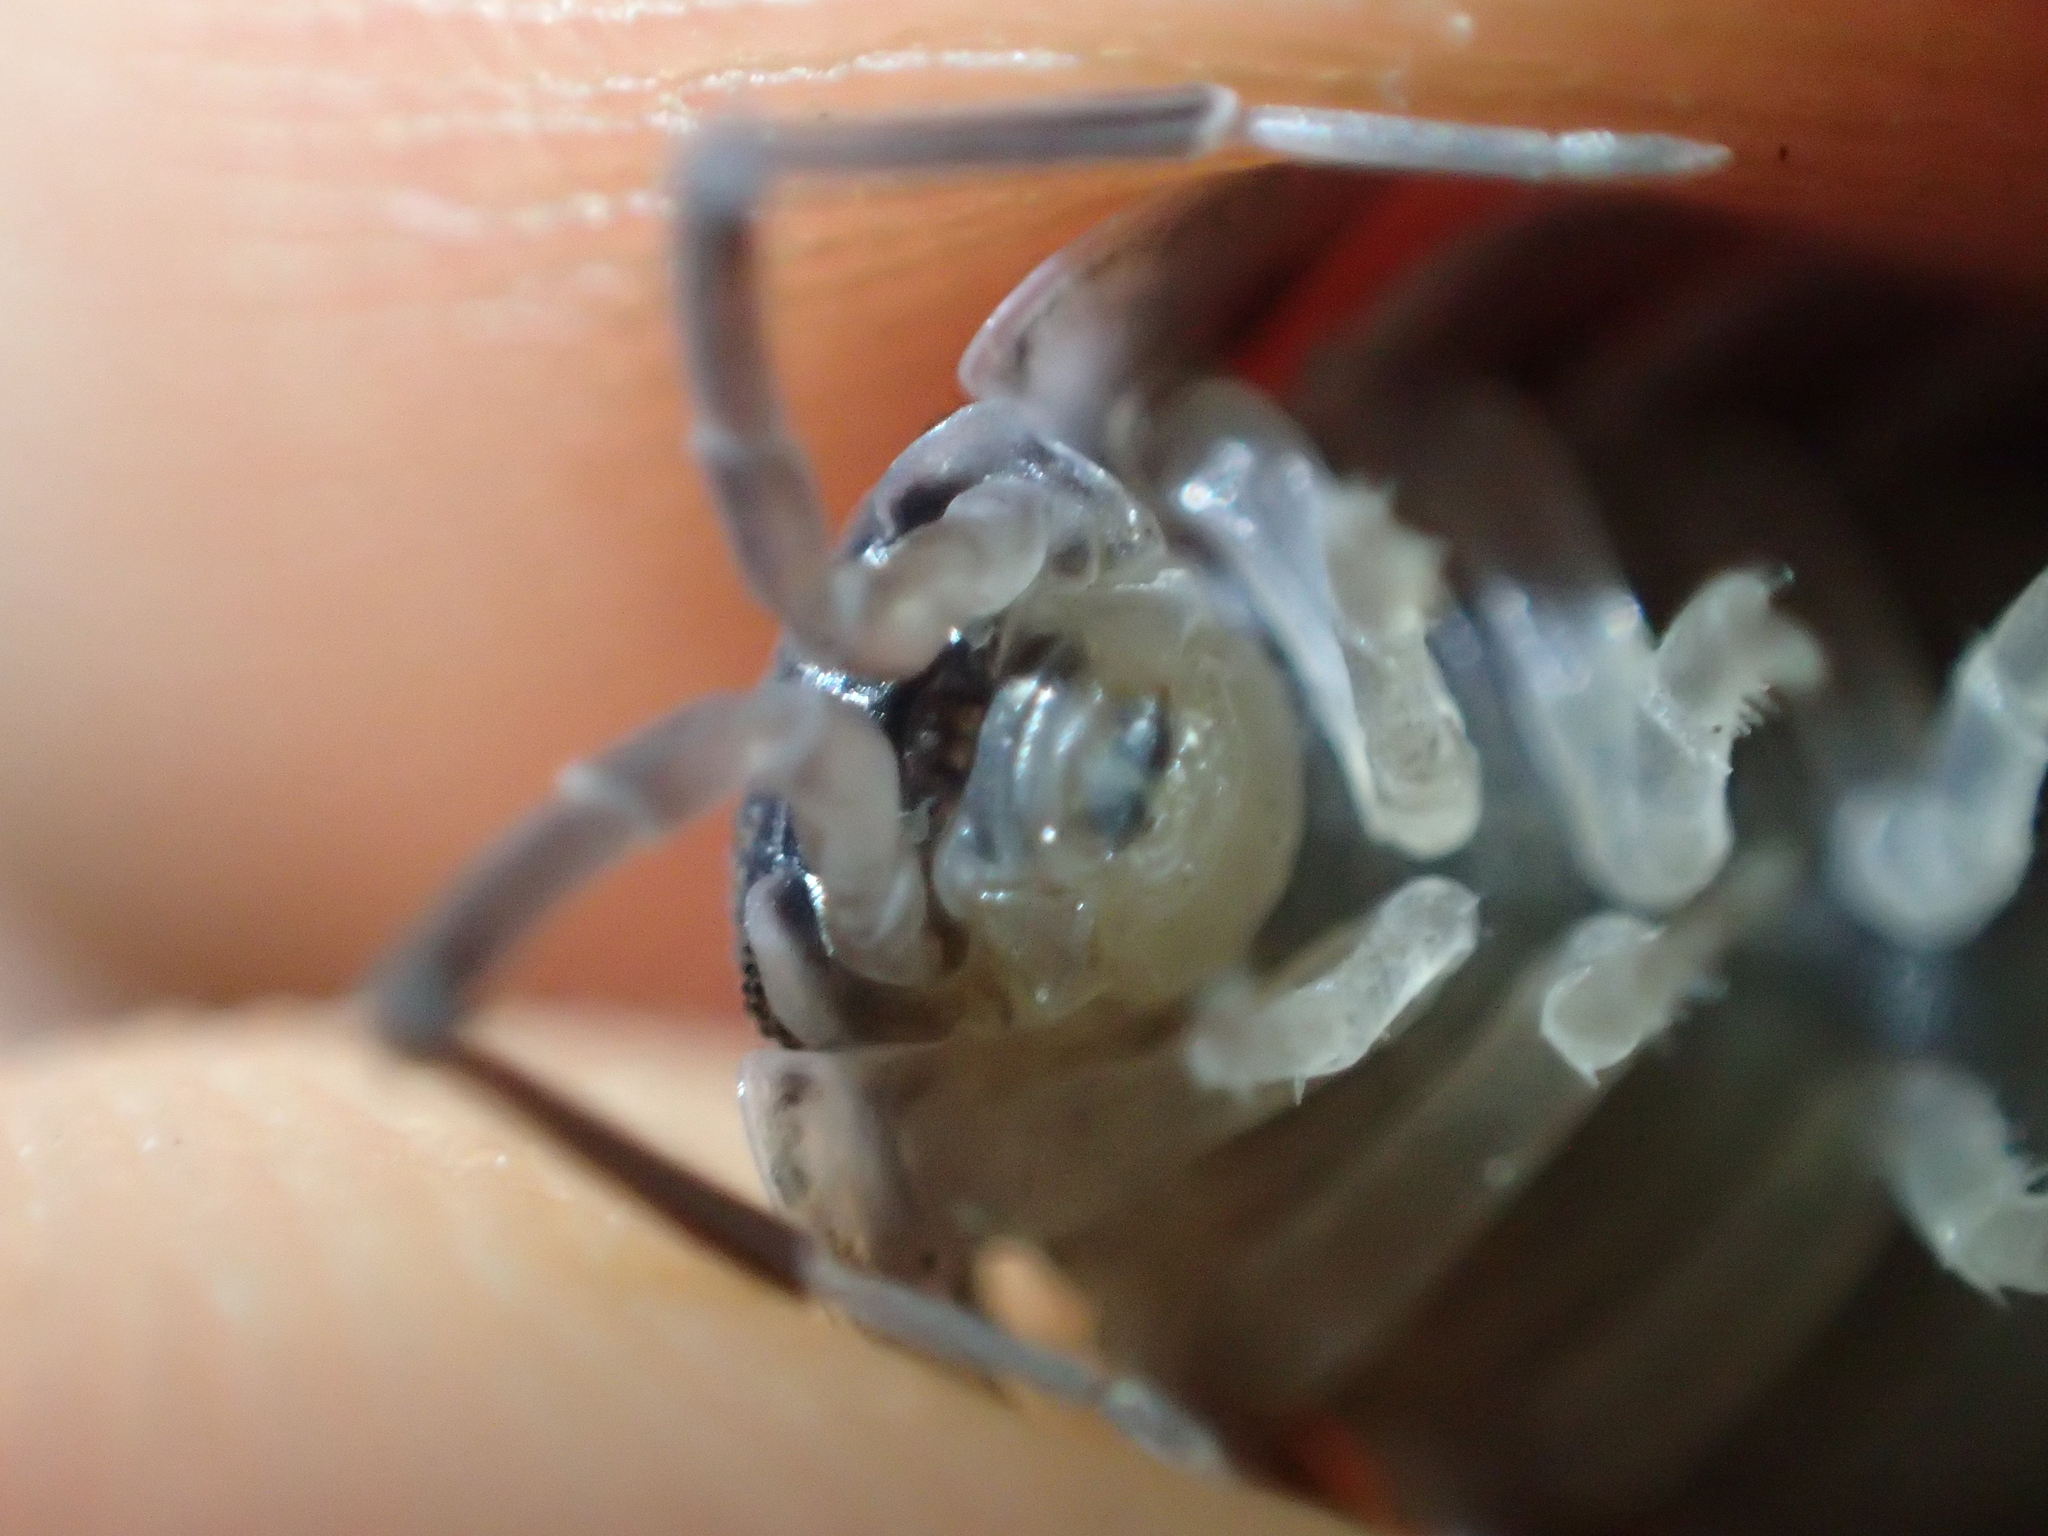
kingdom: Animalia
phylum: Arthropoda
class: Malacostraca
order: Isopoda
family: Porcellionidae
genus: Porcellio
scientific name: Porcellio obsoletus
